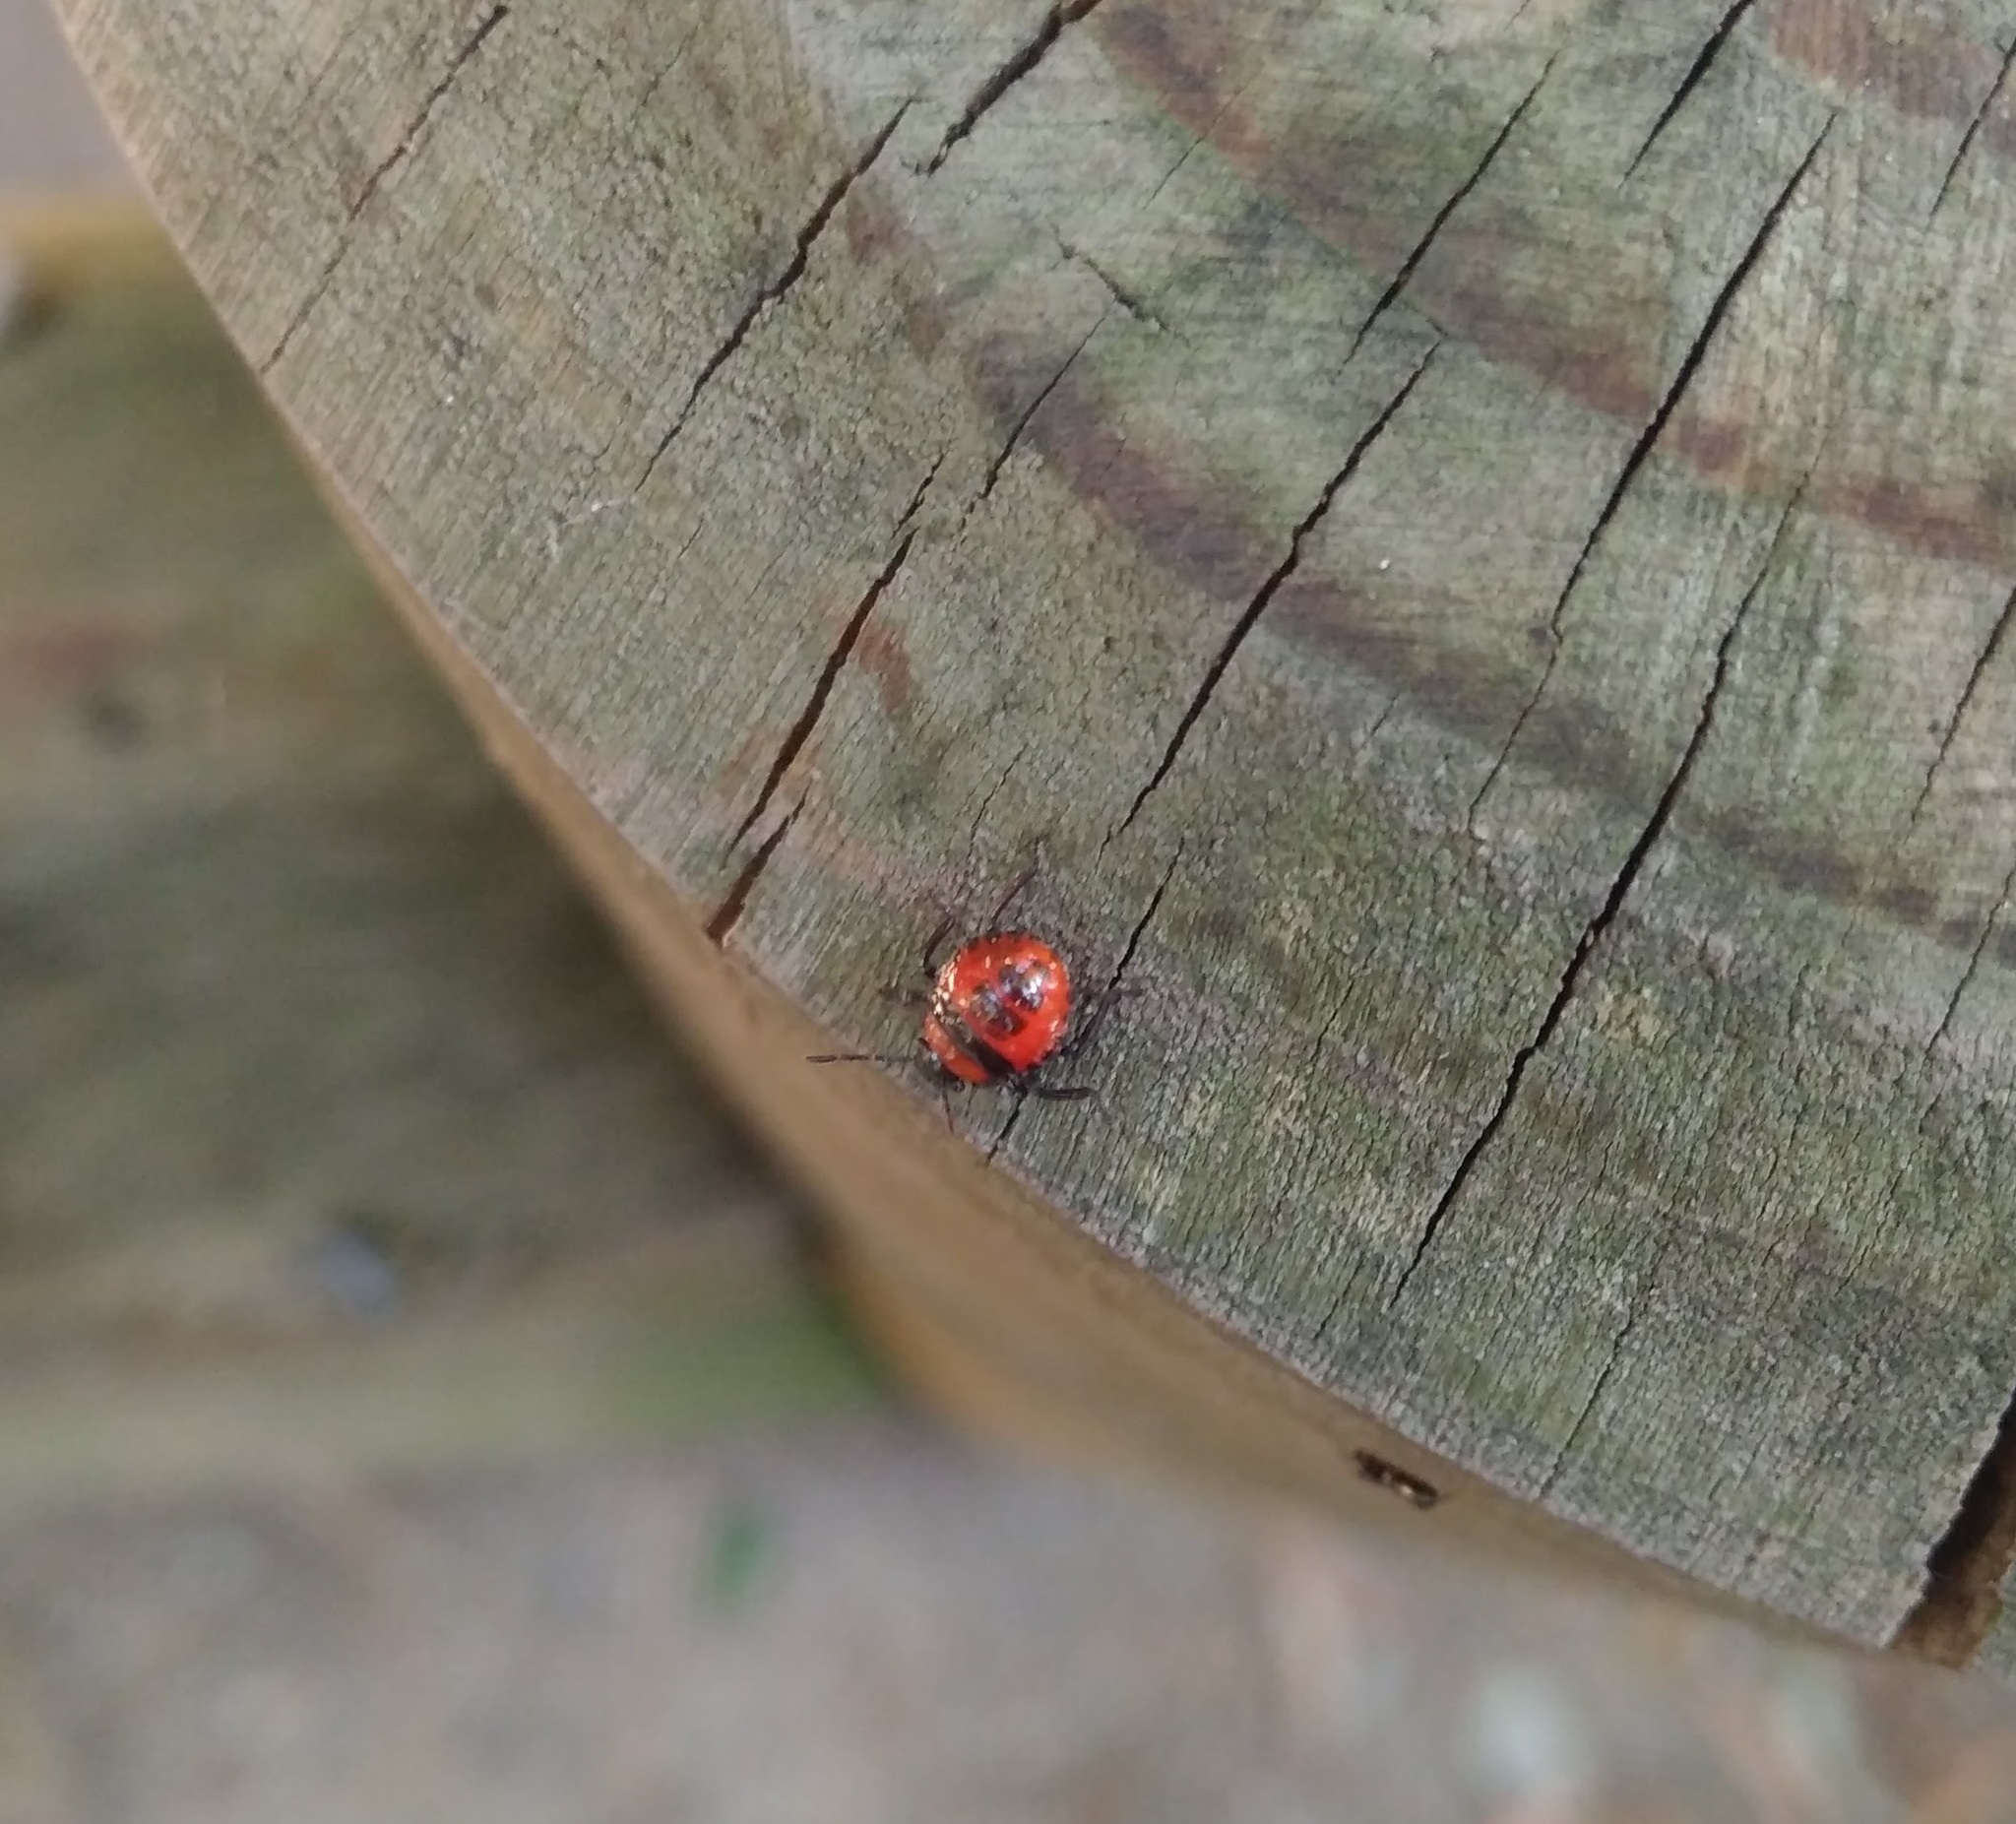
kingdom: Animalia
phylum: Arthropoda
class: Insecta
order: Hemiptera
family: Pentatomidae
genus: Brontocoris
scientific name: Brontocoris
